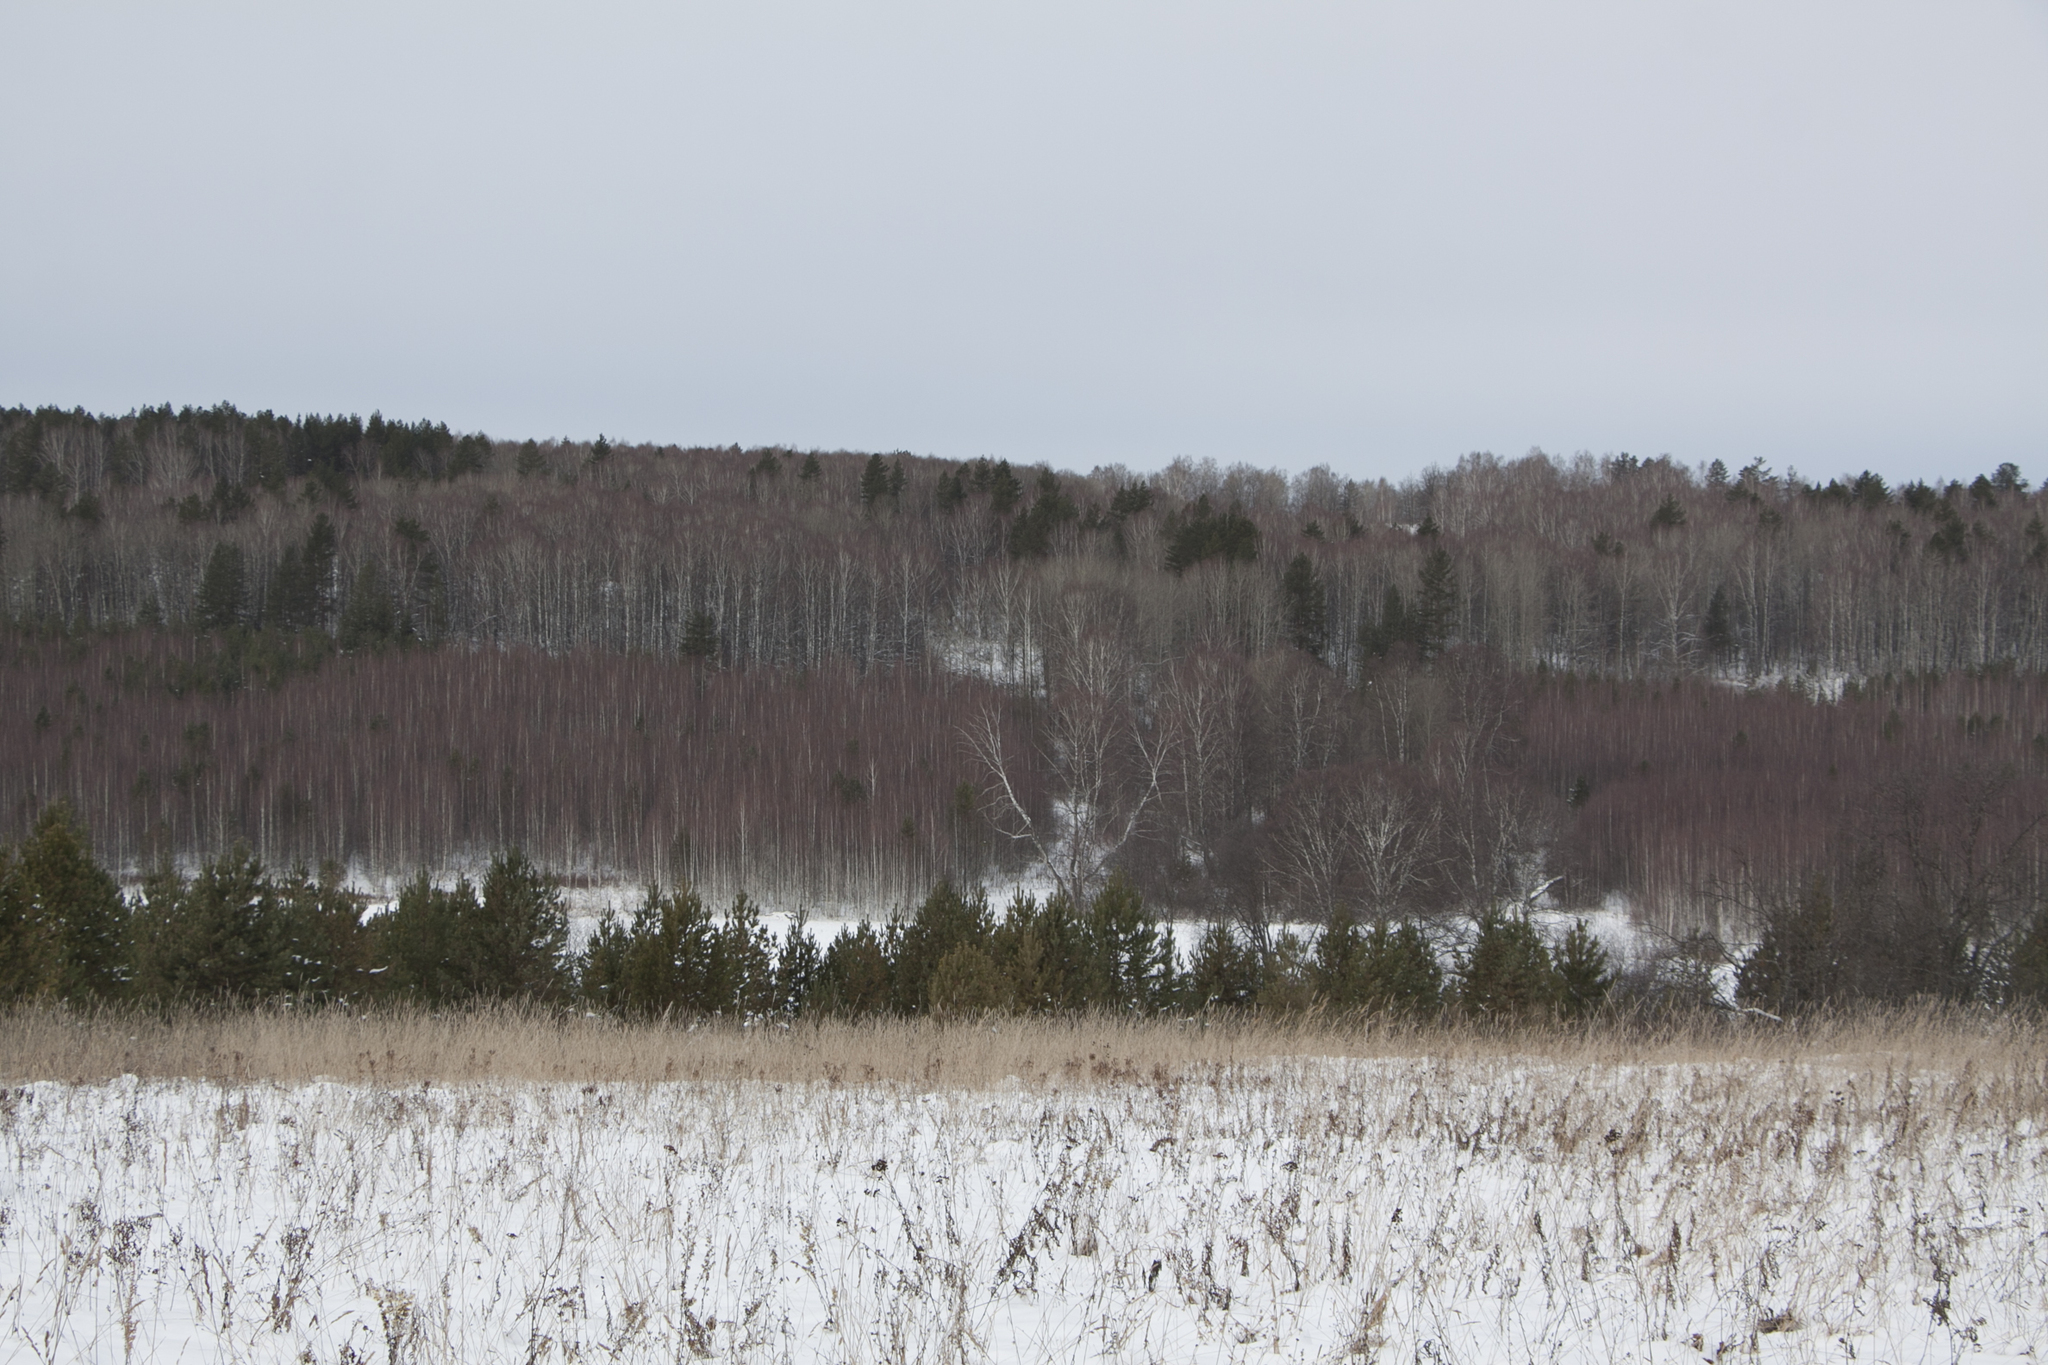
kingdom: Plantae
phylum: Tracheophyta
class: Pinopsida
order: Pinales
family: Pinaceae
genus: Pinus
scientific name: Pinus sylvestris
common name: Scots pine
